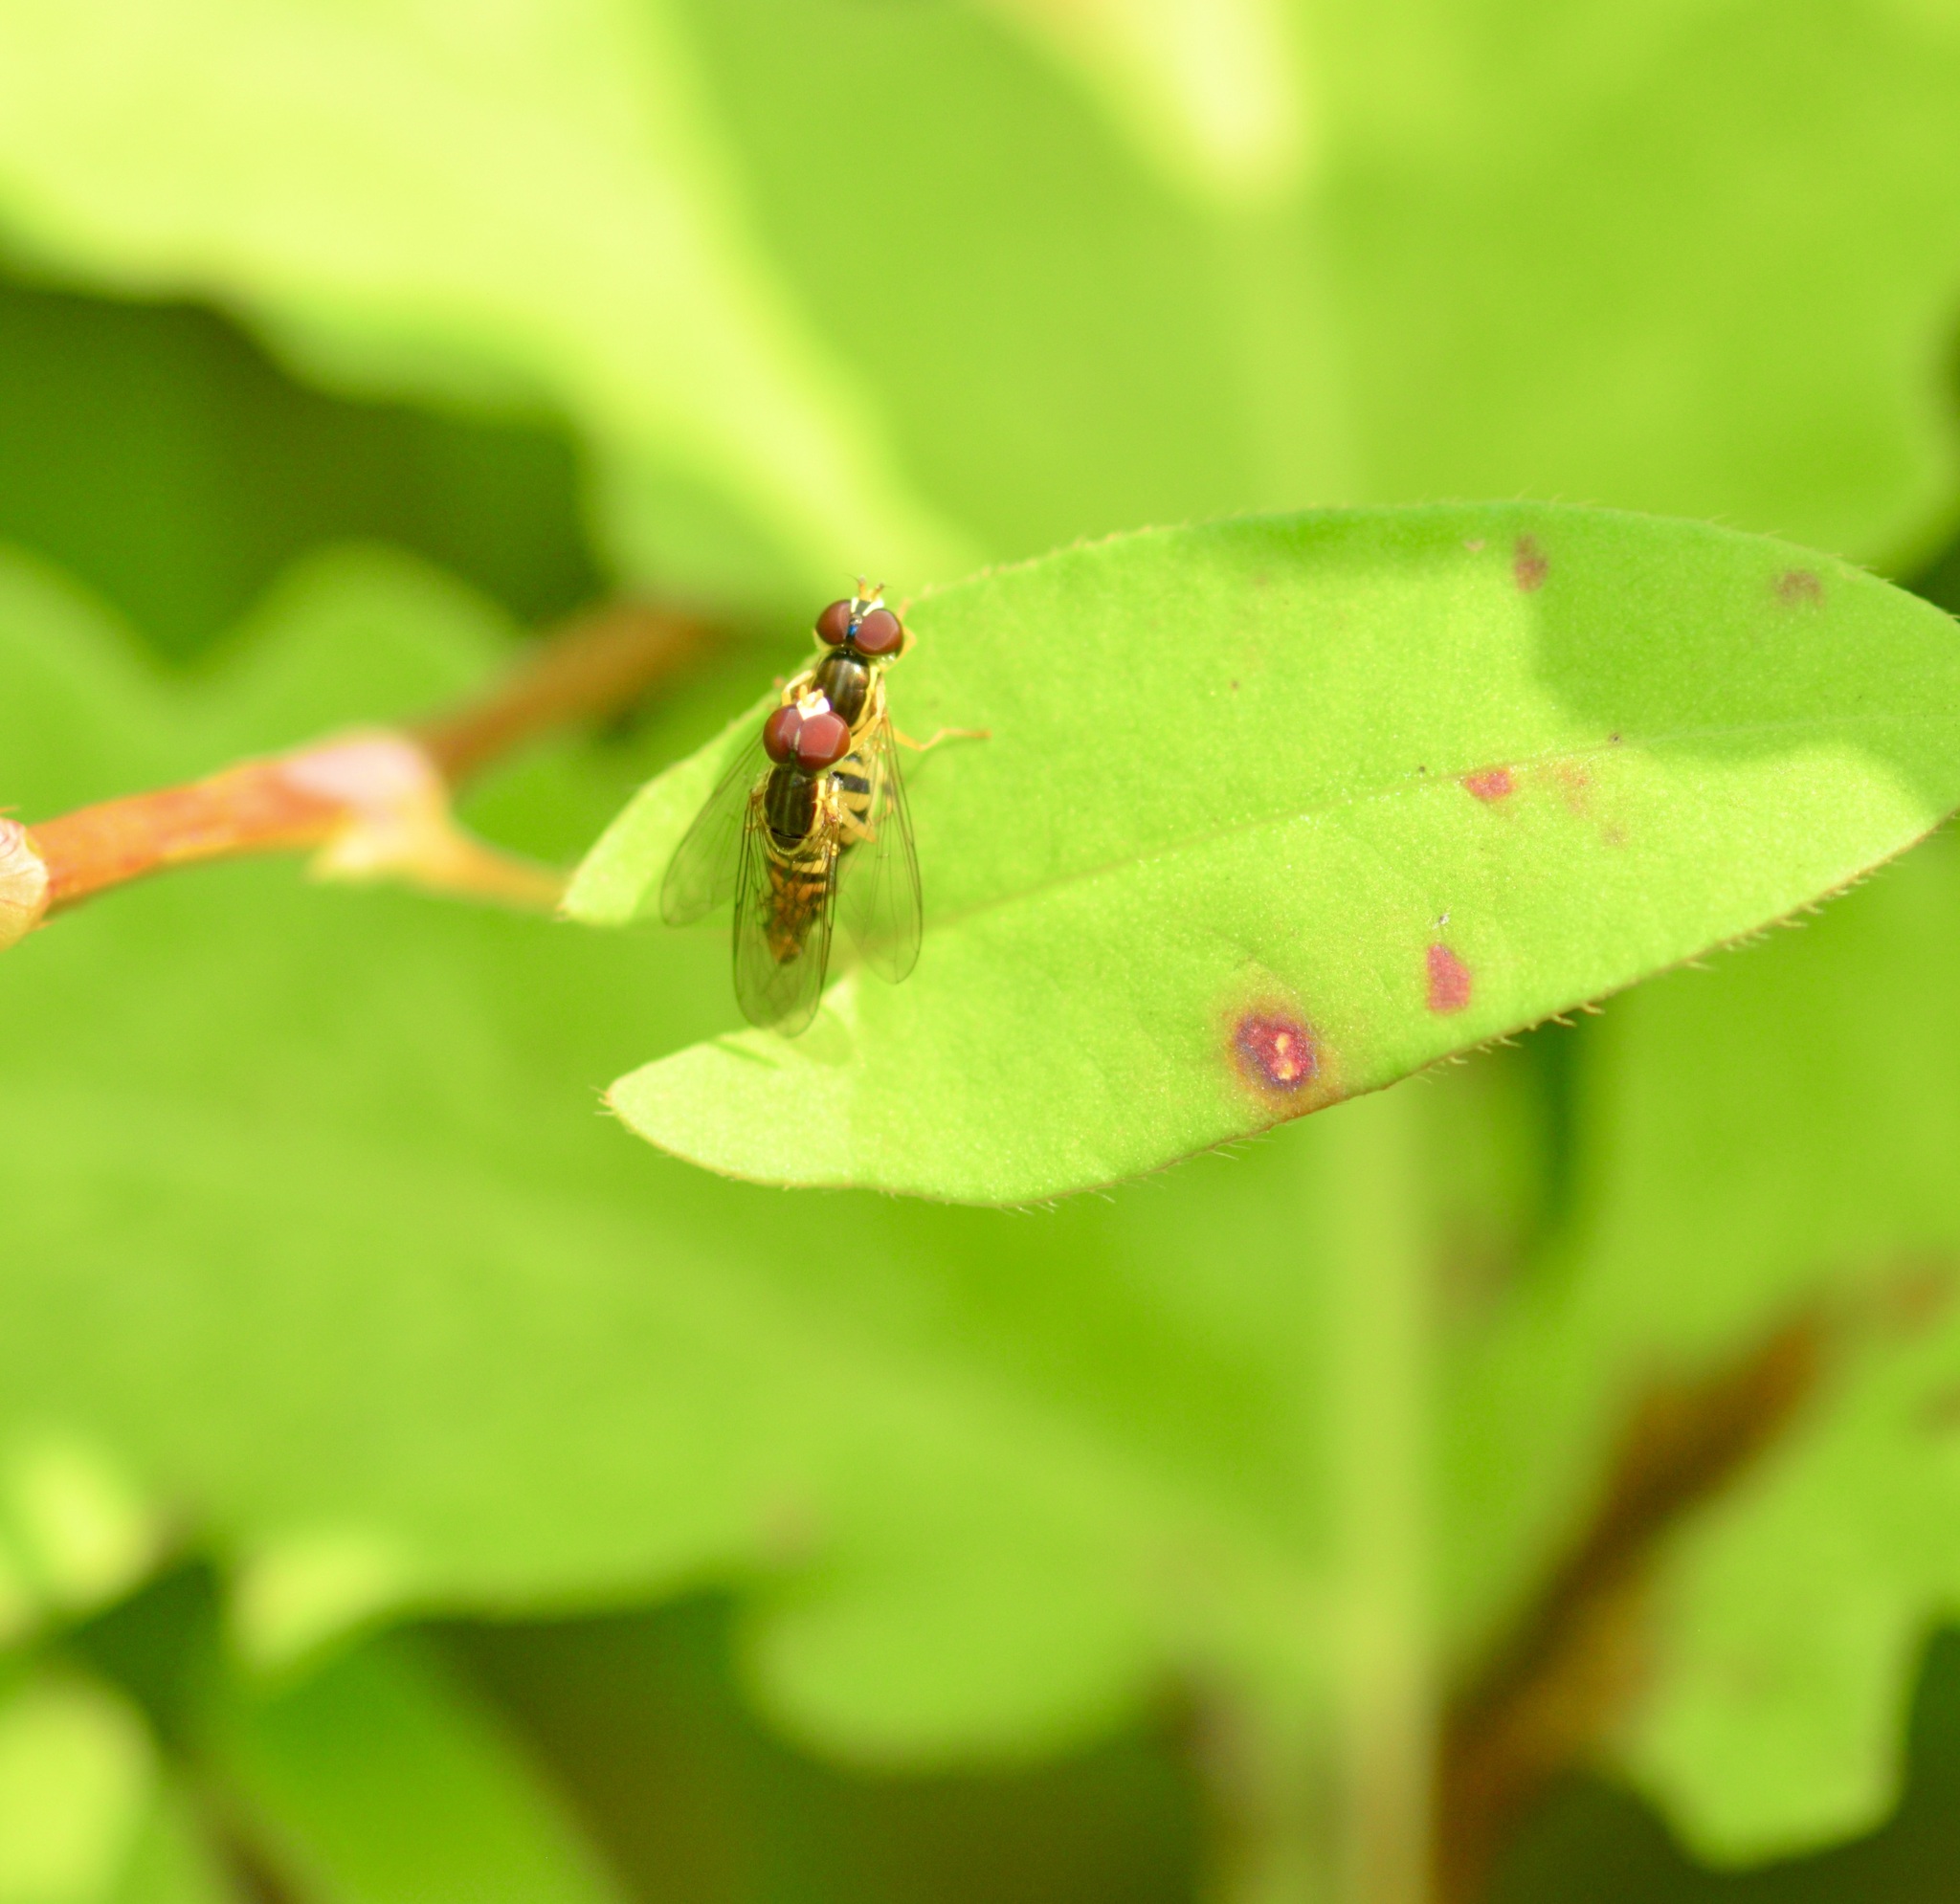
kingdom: Animalia
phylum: Arthropoda
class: Insecta
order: Diptera
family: Syrphidae
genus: Toxomerus
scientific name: Toxomerus geminatus
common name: Eastern calligrapher
